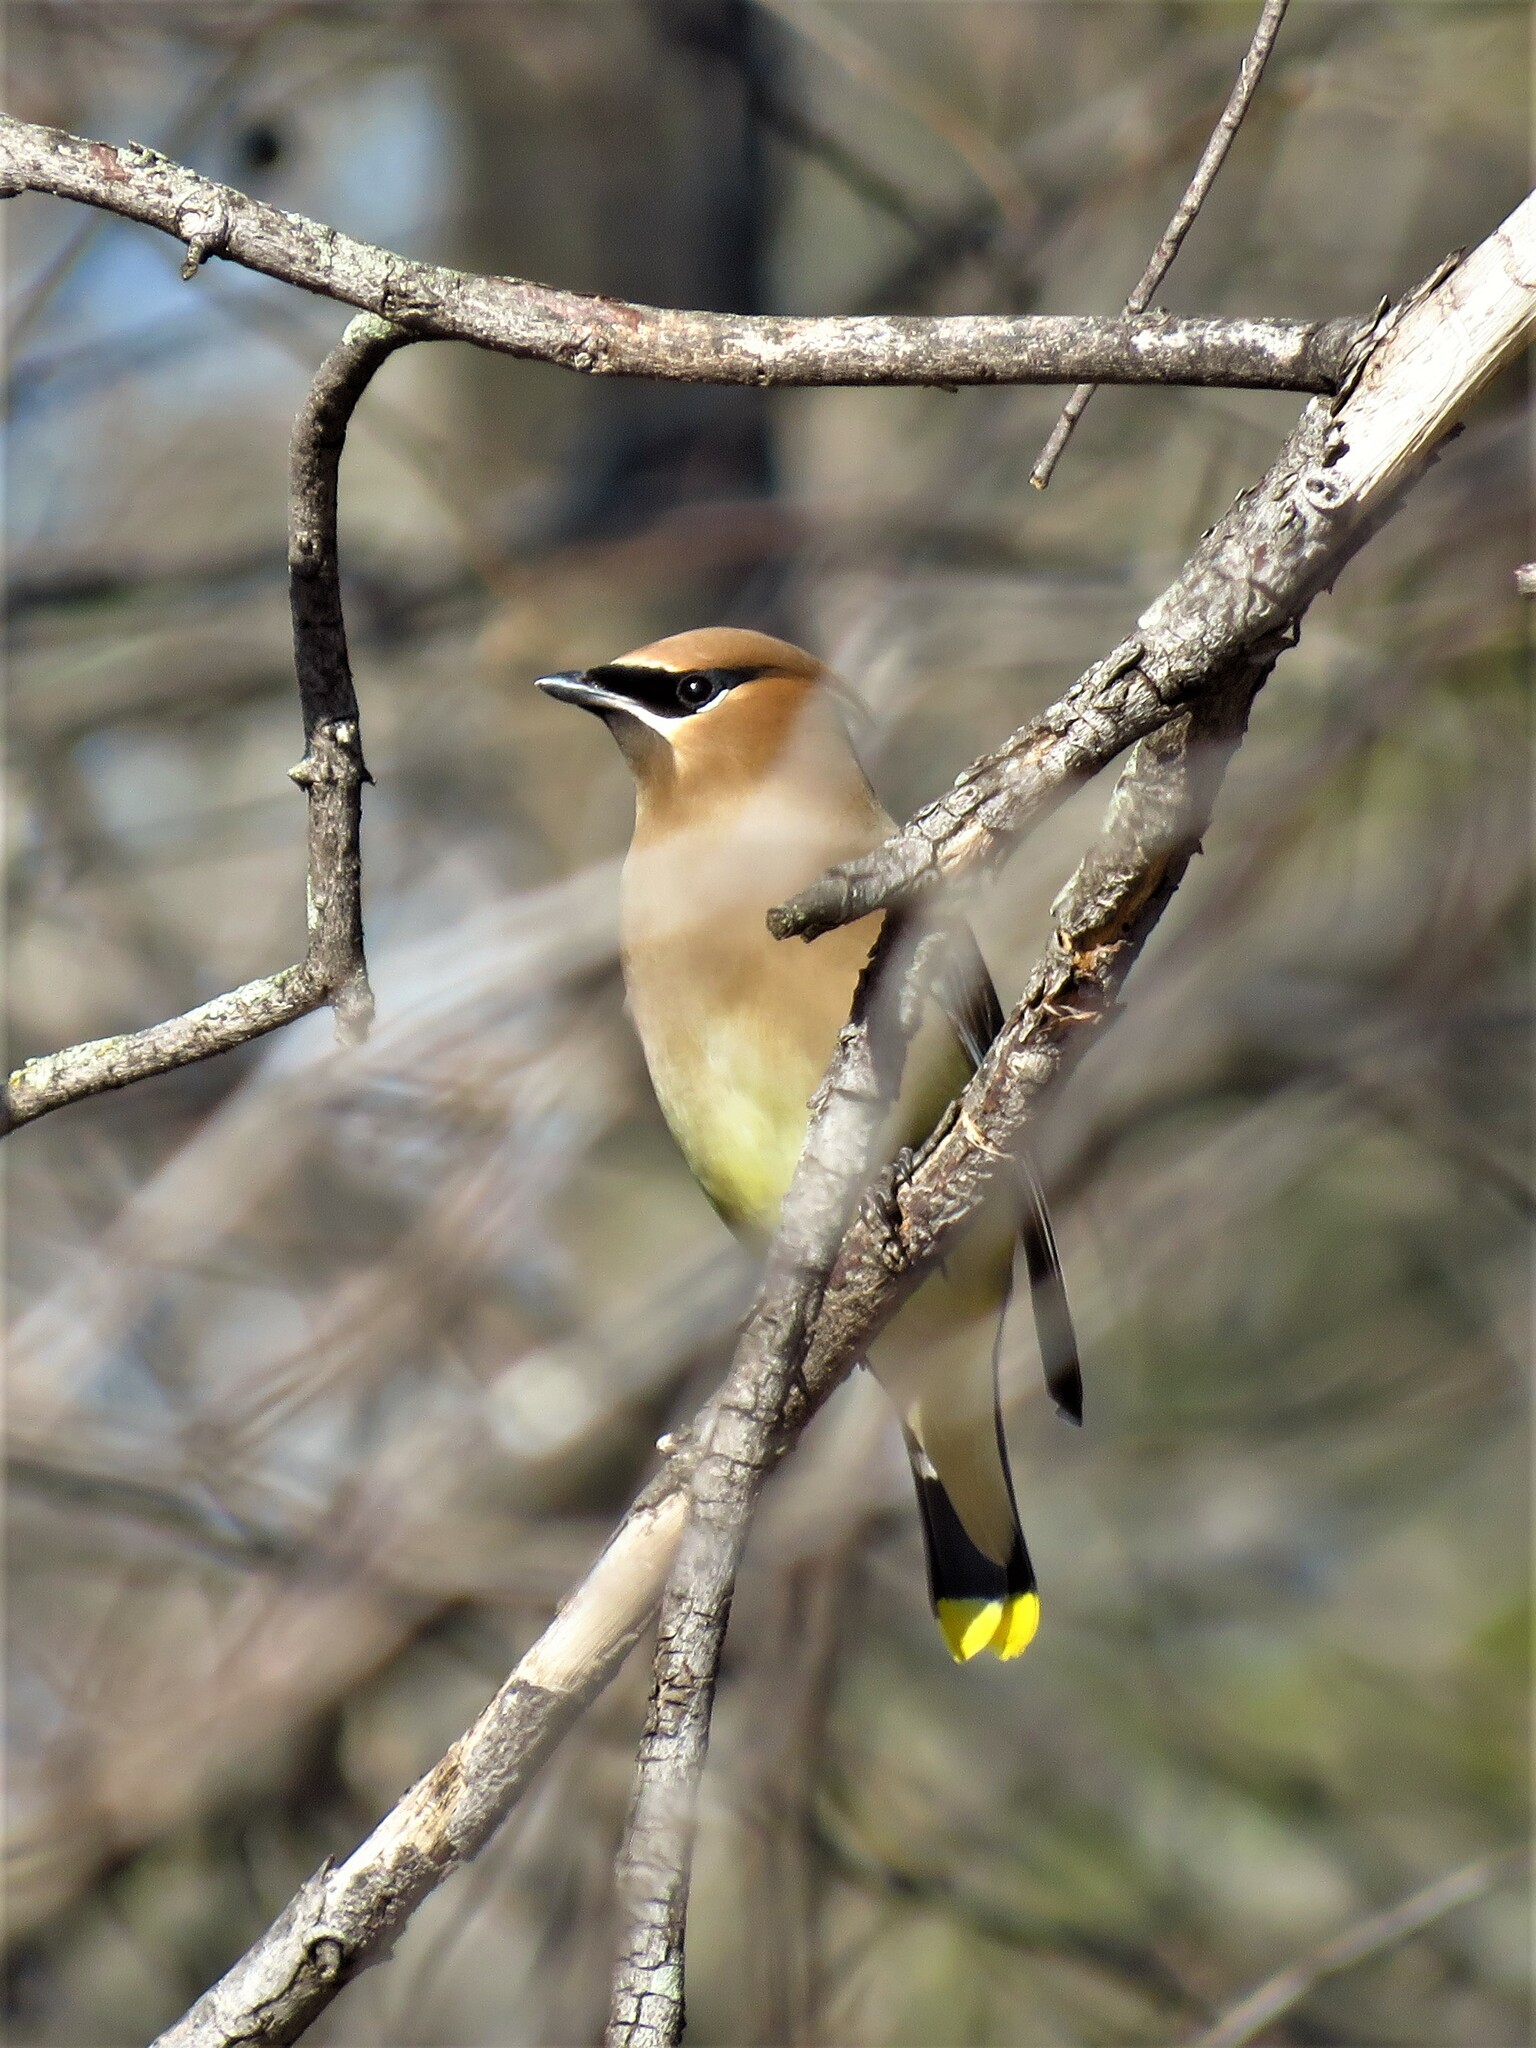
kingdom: Animalia
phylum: Chordata
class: Aves
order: Passeriformes
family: Bombycillidae
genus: Bombycilla
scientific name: Bombycilla cedrorum
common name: Cedar waxwing
